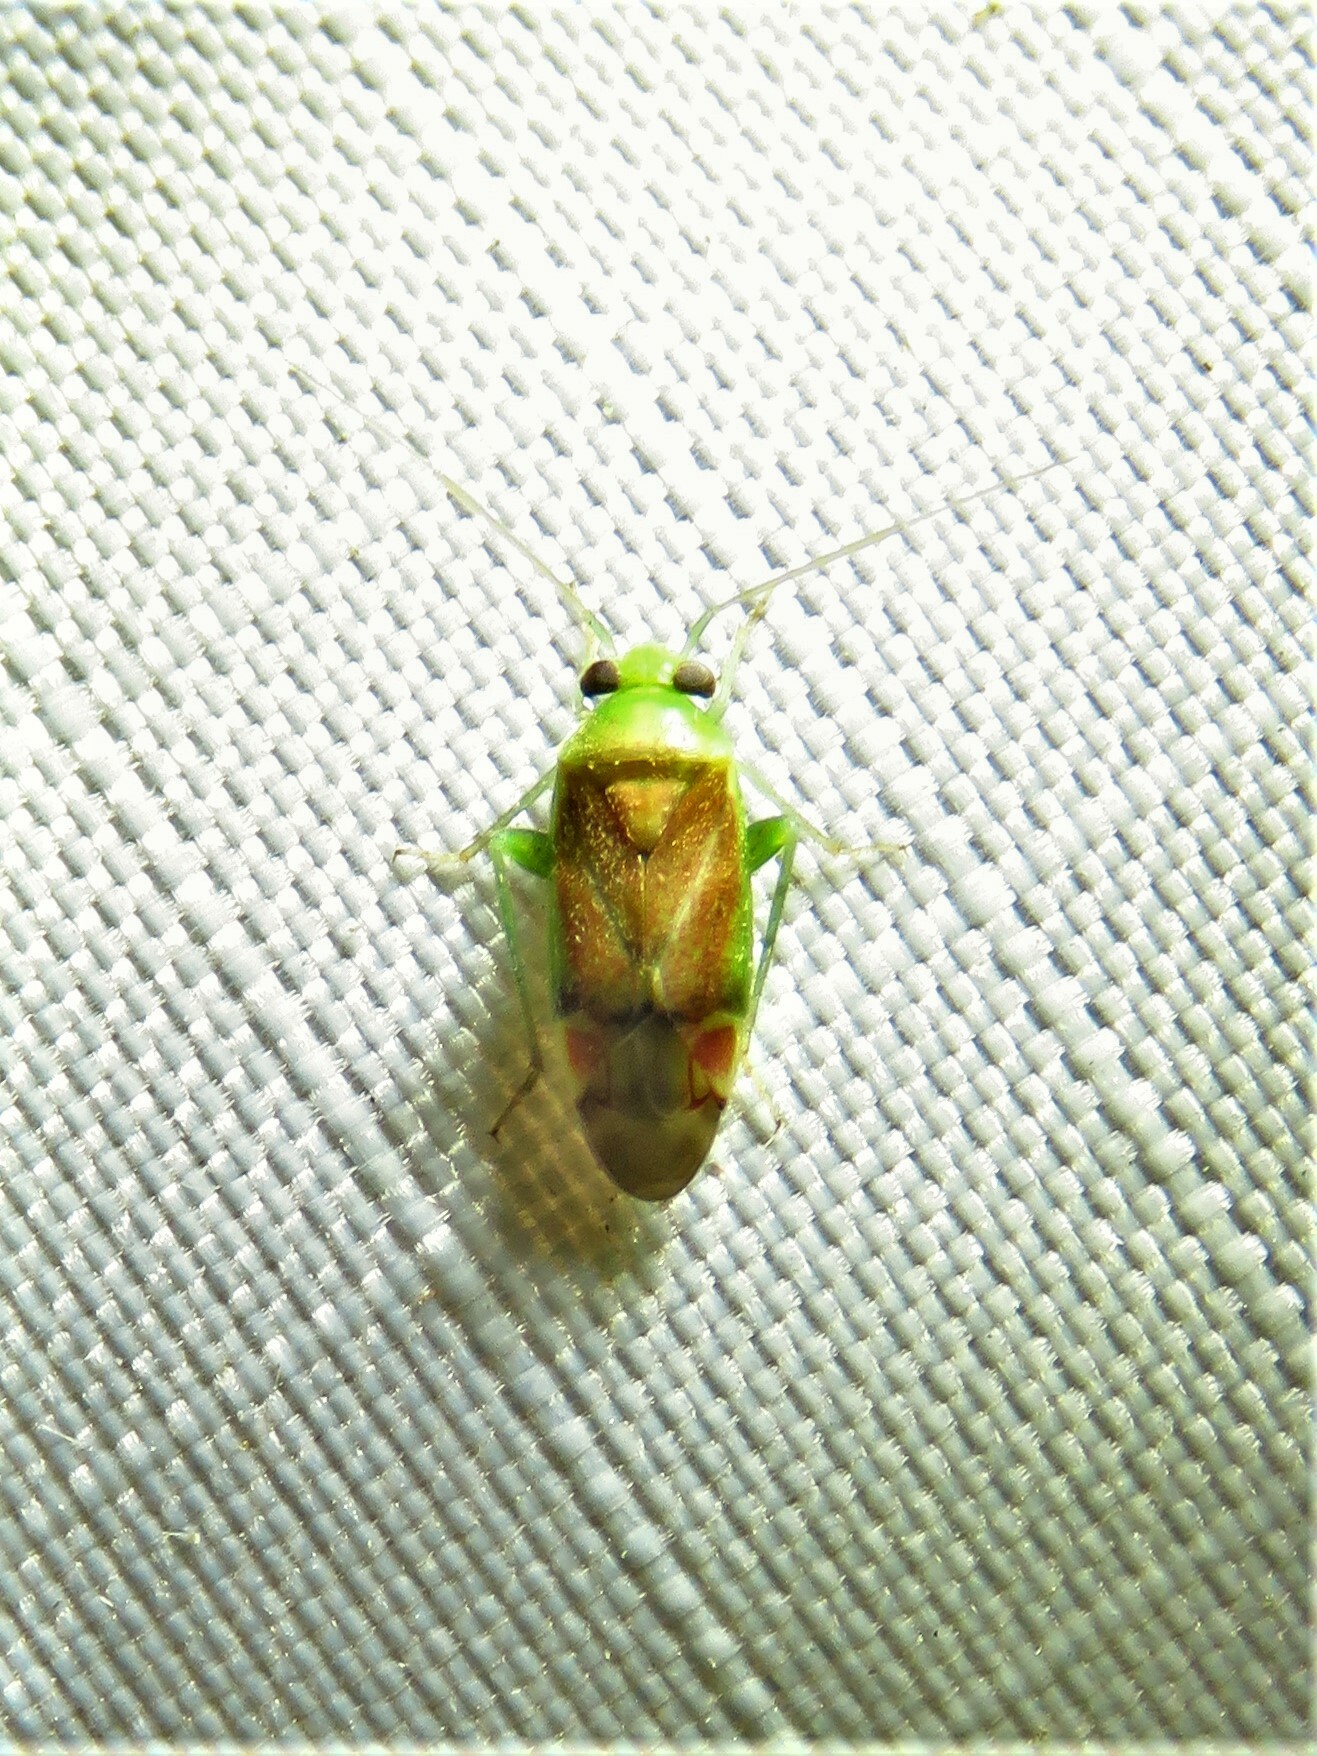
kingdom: Animalia
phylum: Arthropoda
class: Insecta
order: Hemiptera
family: Miridae
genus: Dichrooscytus
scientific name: Dichrooscytus
